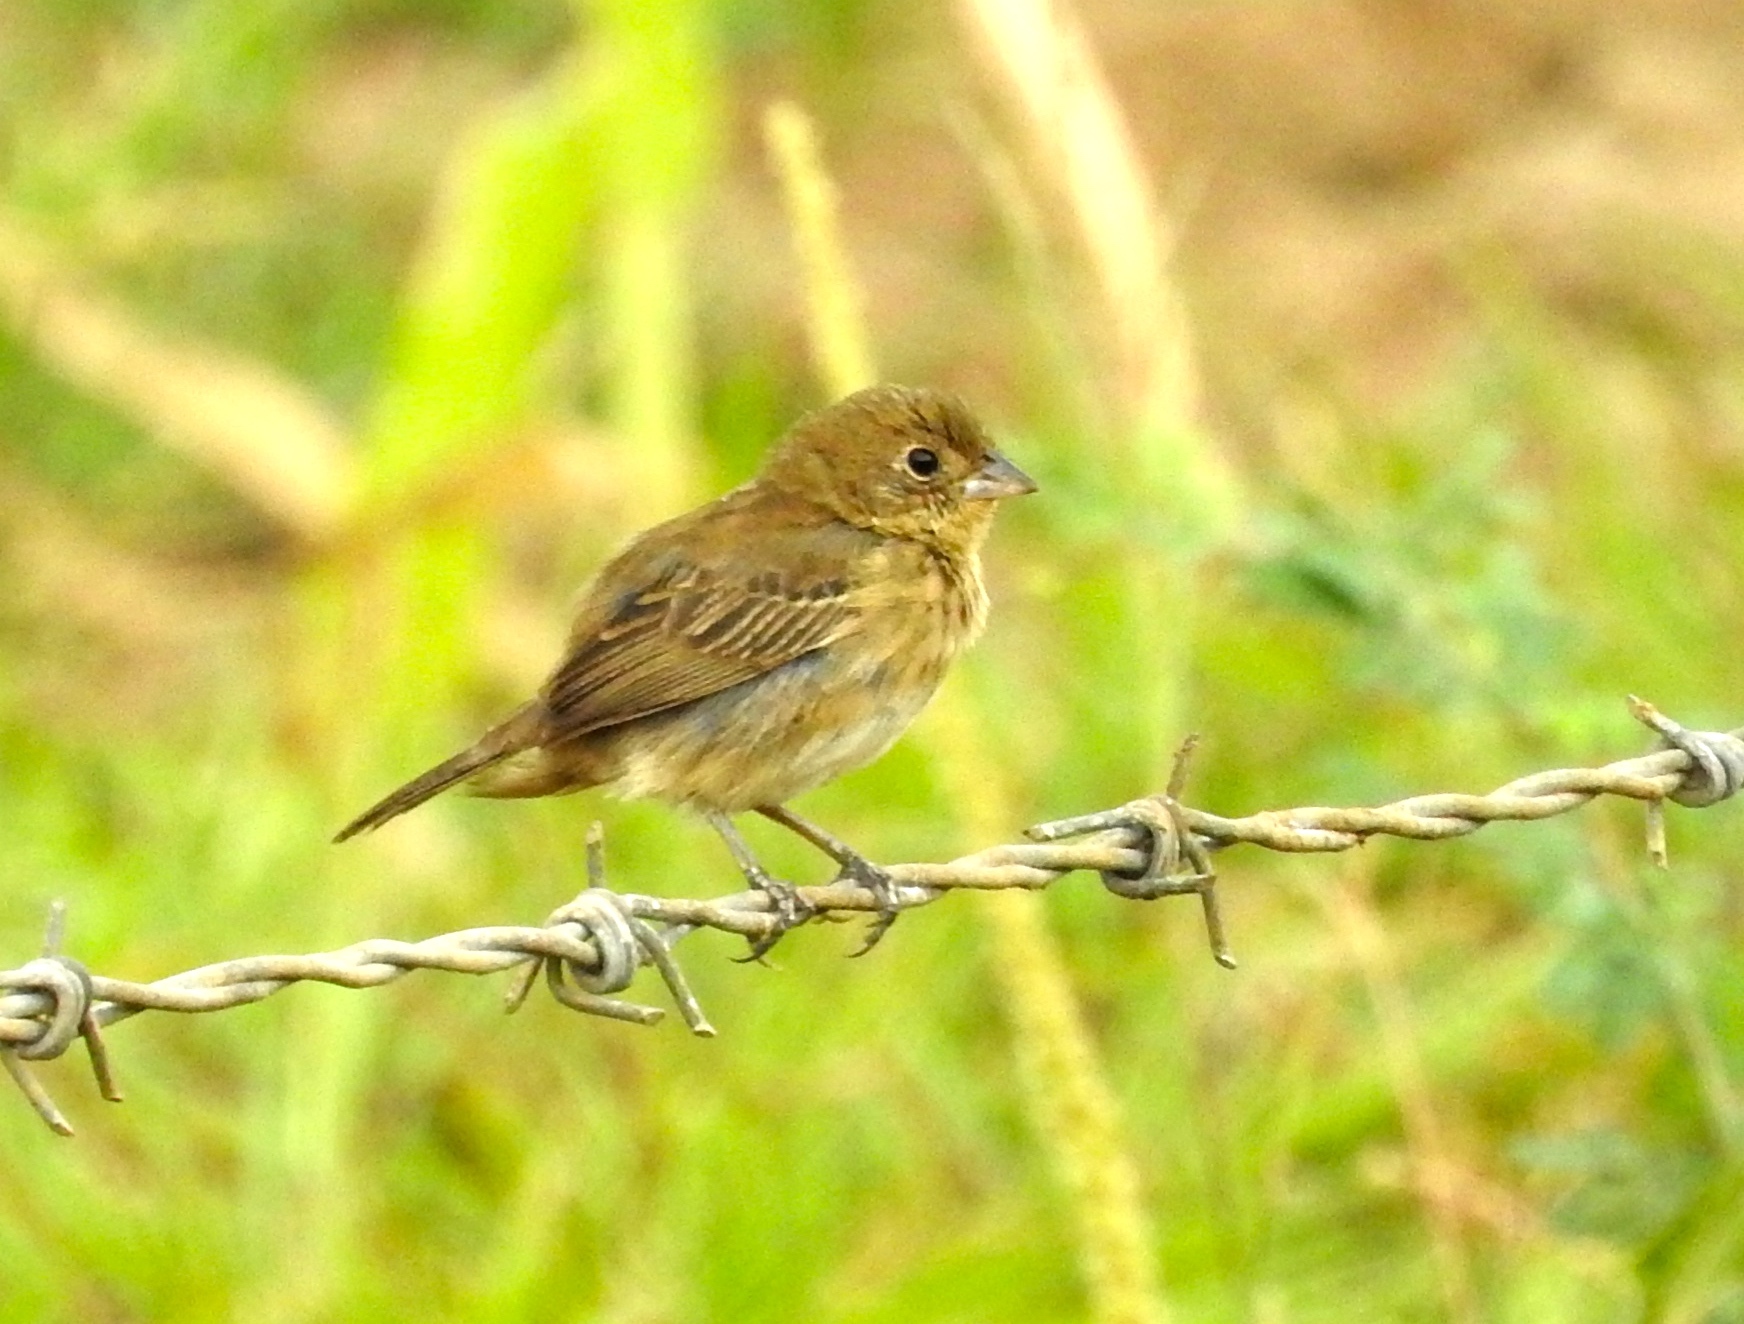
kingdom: Animalia
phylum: Chordata
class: Aves
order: Passeriformes
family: Cardinalidae
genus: Passerina
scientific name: Passerina
